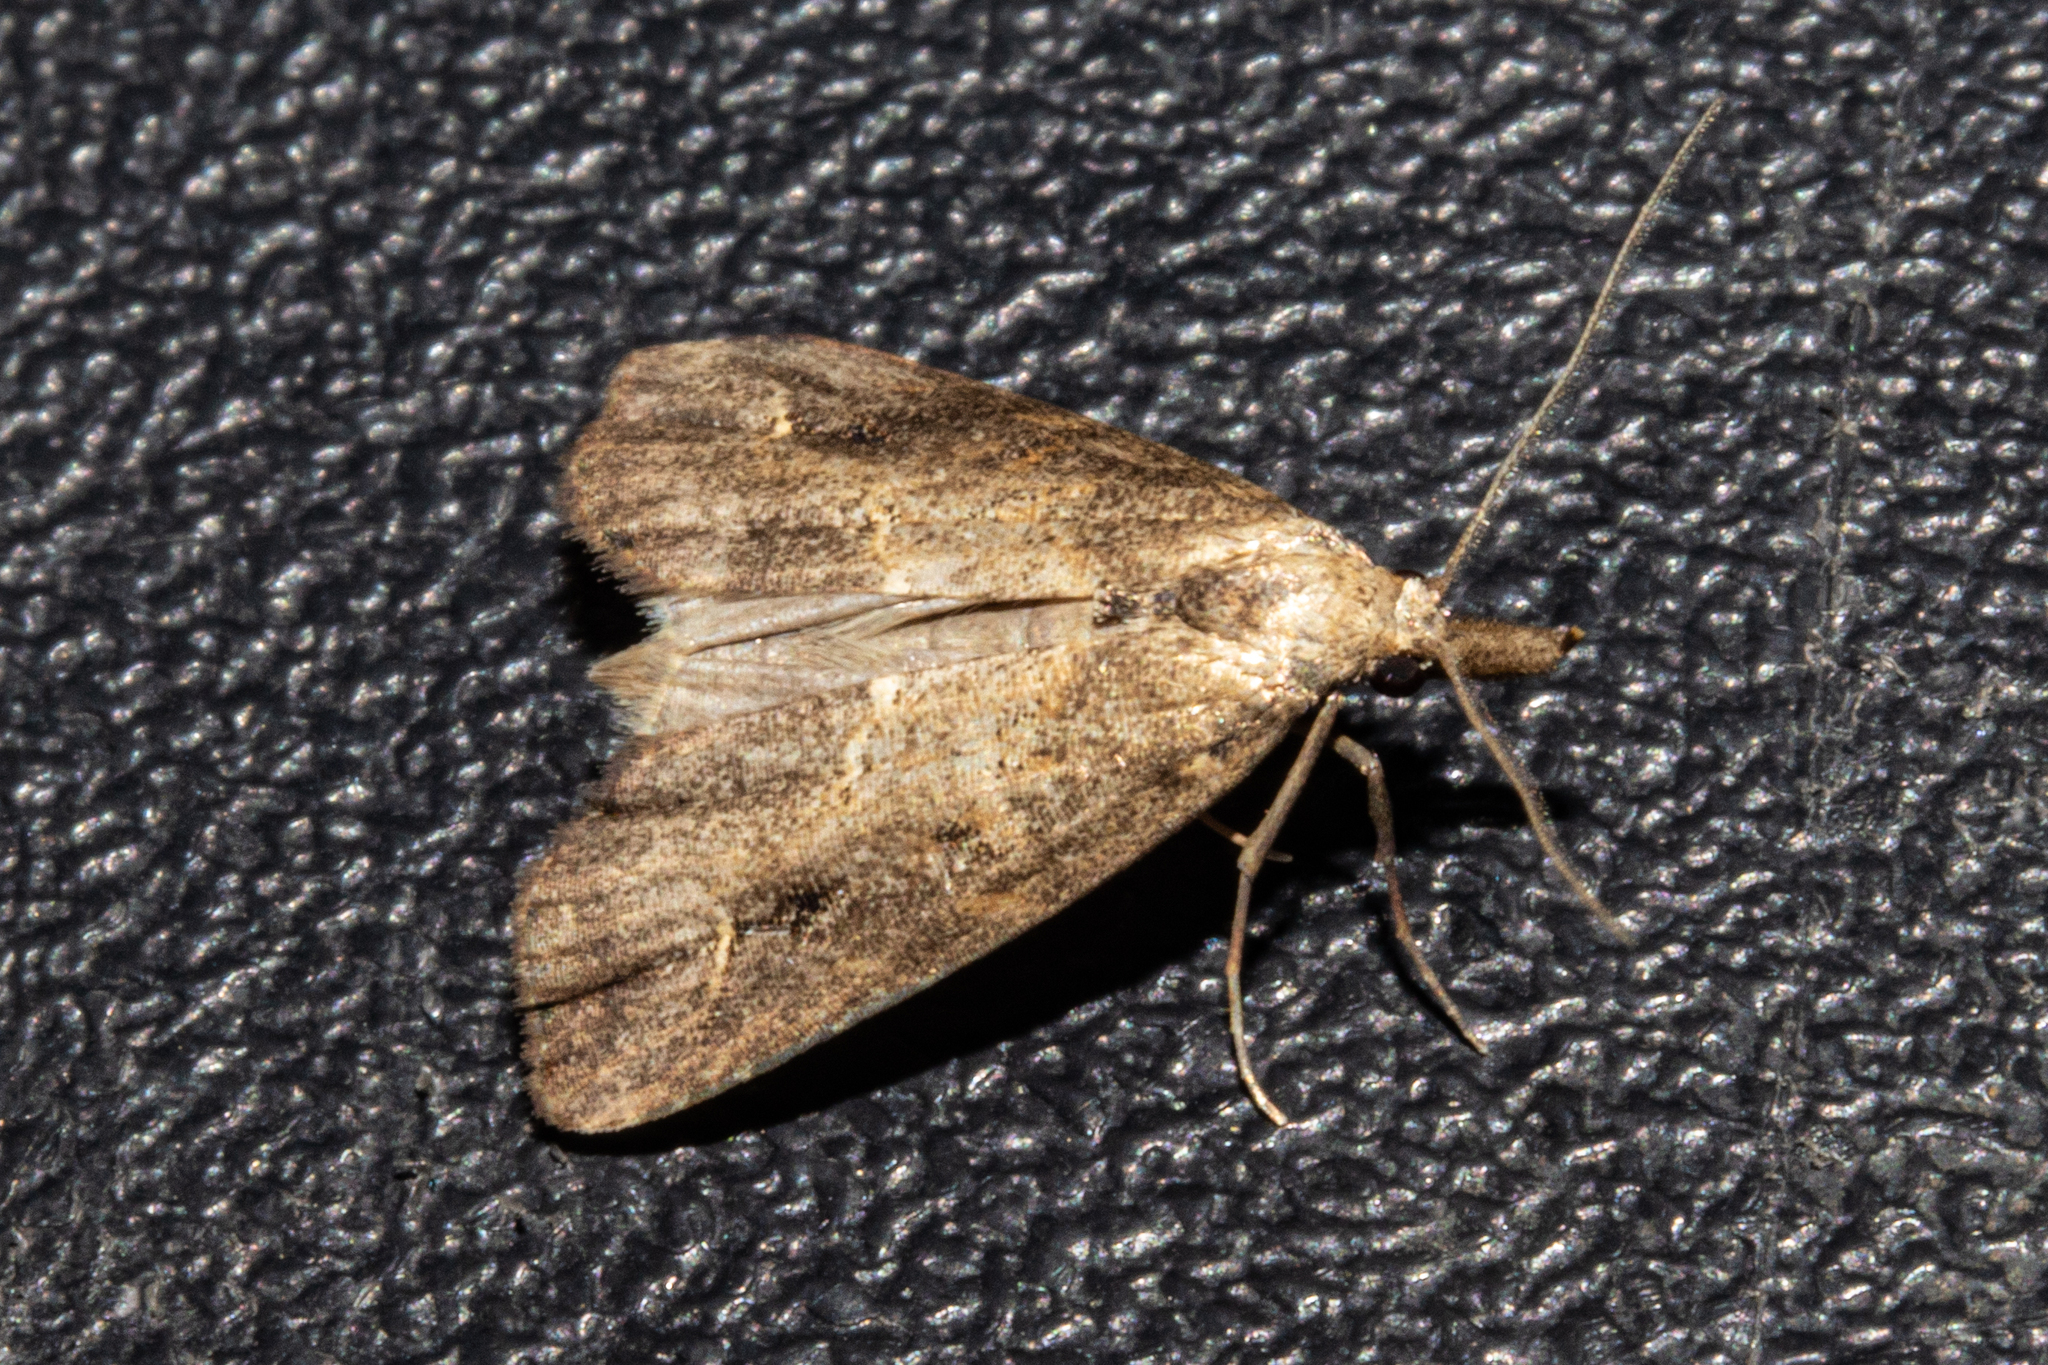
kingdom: Animalia
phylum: Arthropoda
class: Insecta
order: Lepidoptera
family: Erebidae
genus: Schrankia
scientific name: Schrankia costaestrigalis
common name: Pinion-streaked snout
